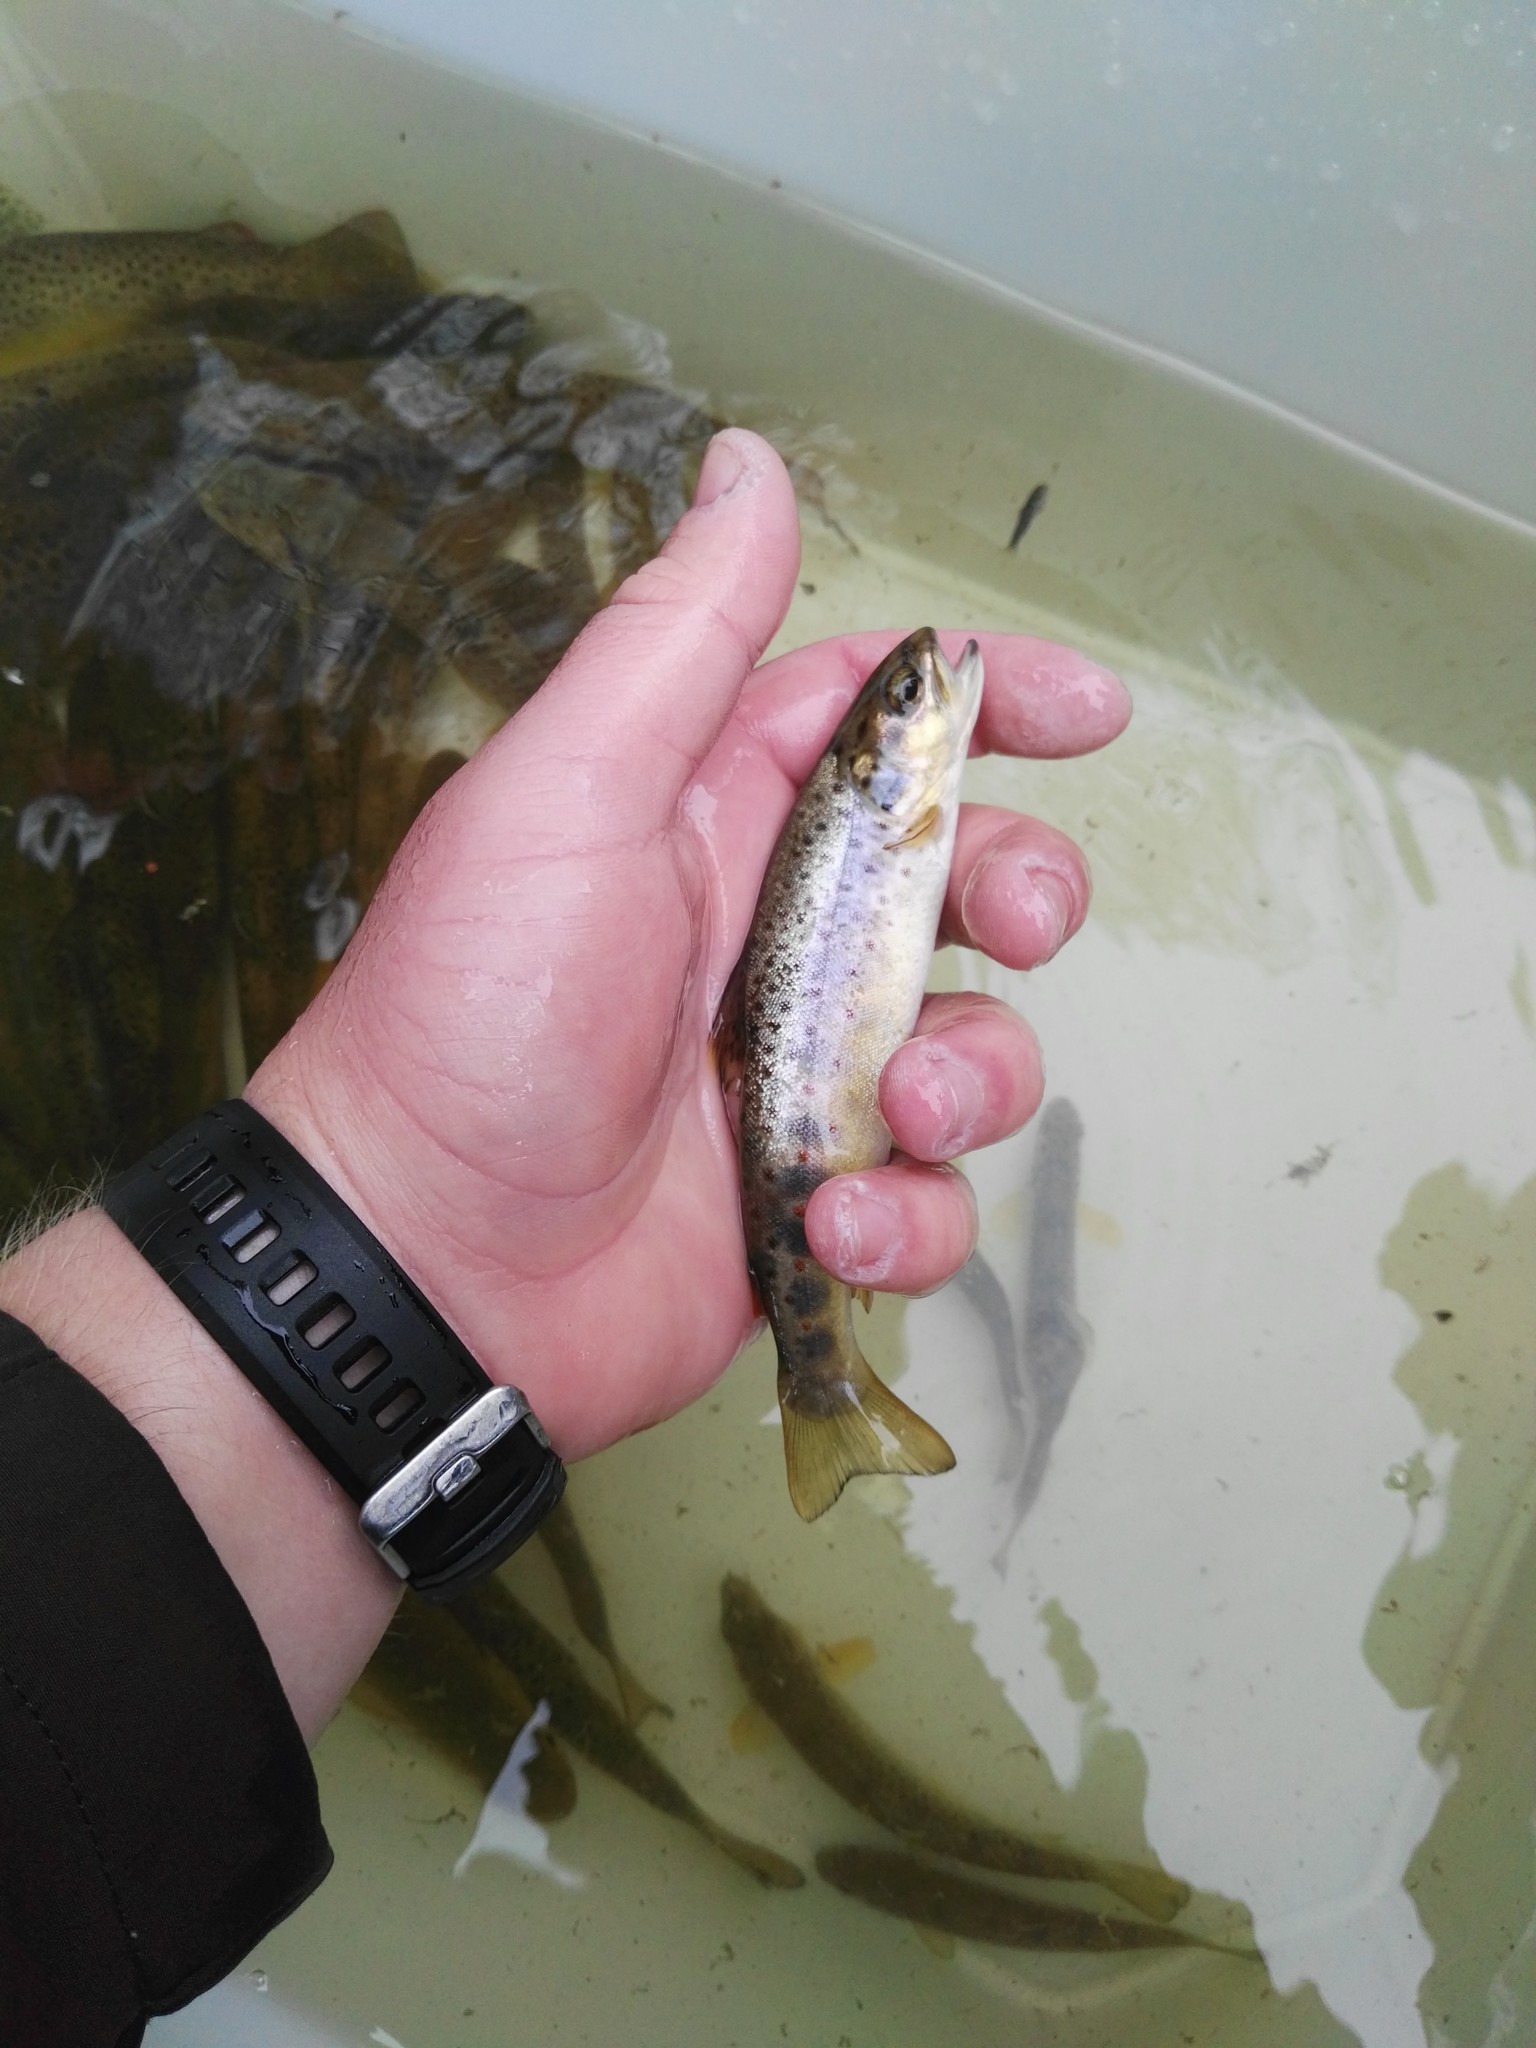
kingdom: Animalia
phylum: Chordata
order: Salmoniformes
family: Salmonidae
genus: Salmo
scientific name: Salmo trutta
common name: Brown trout
